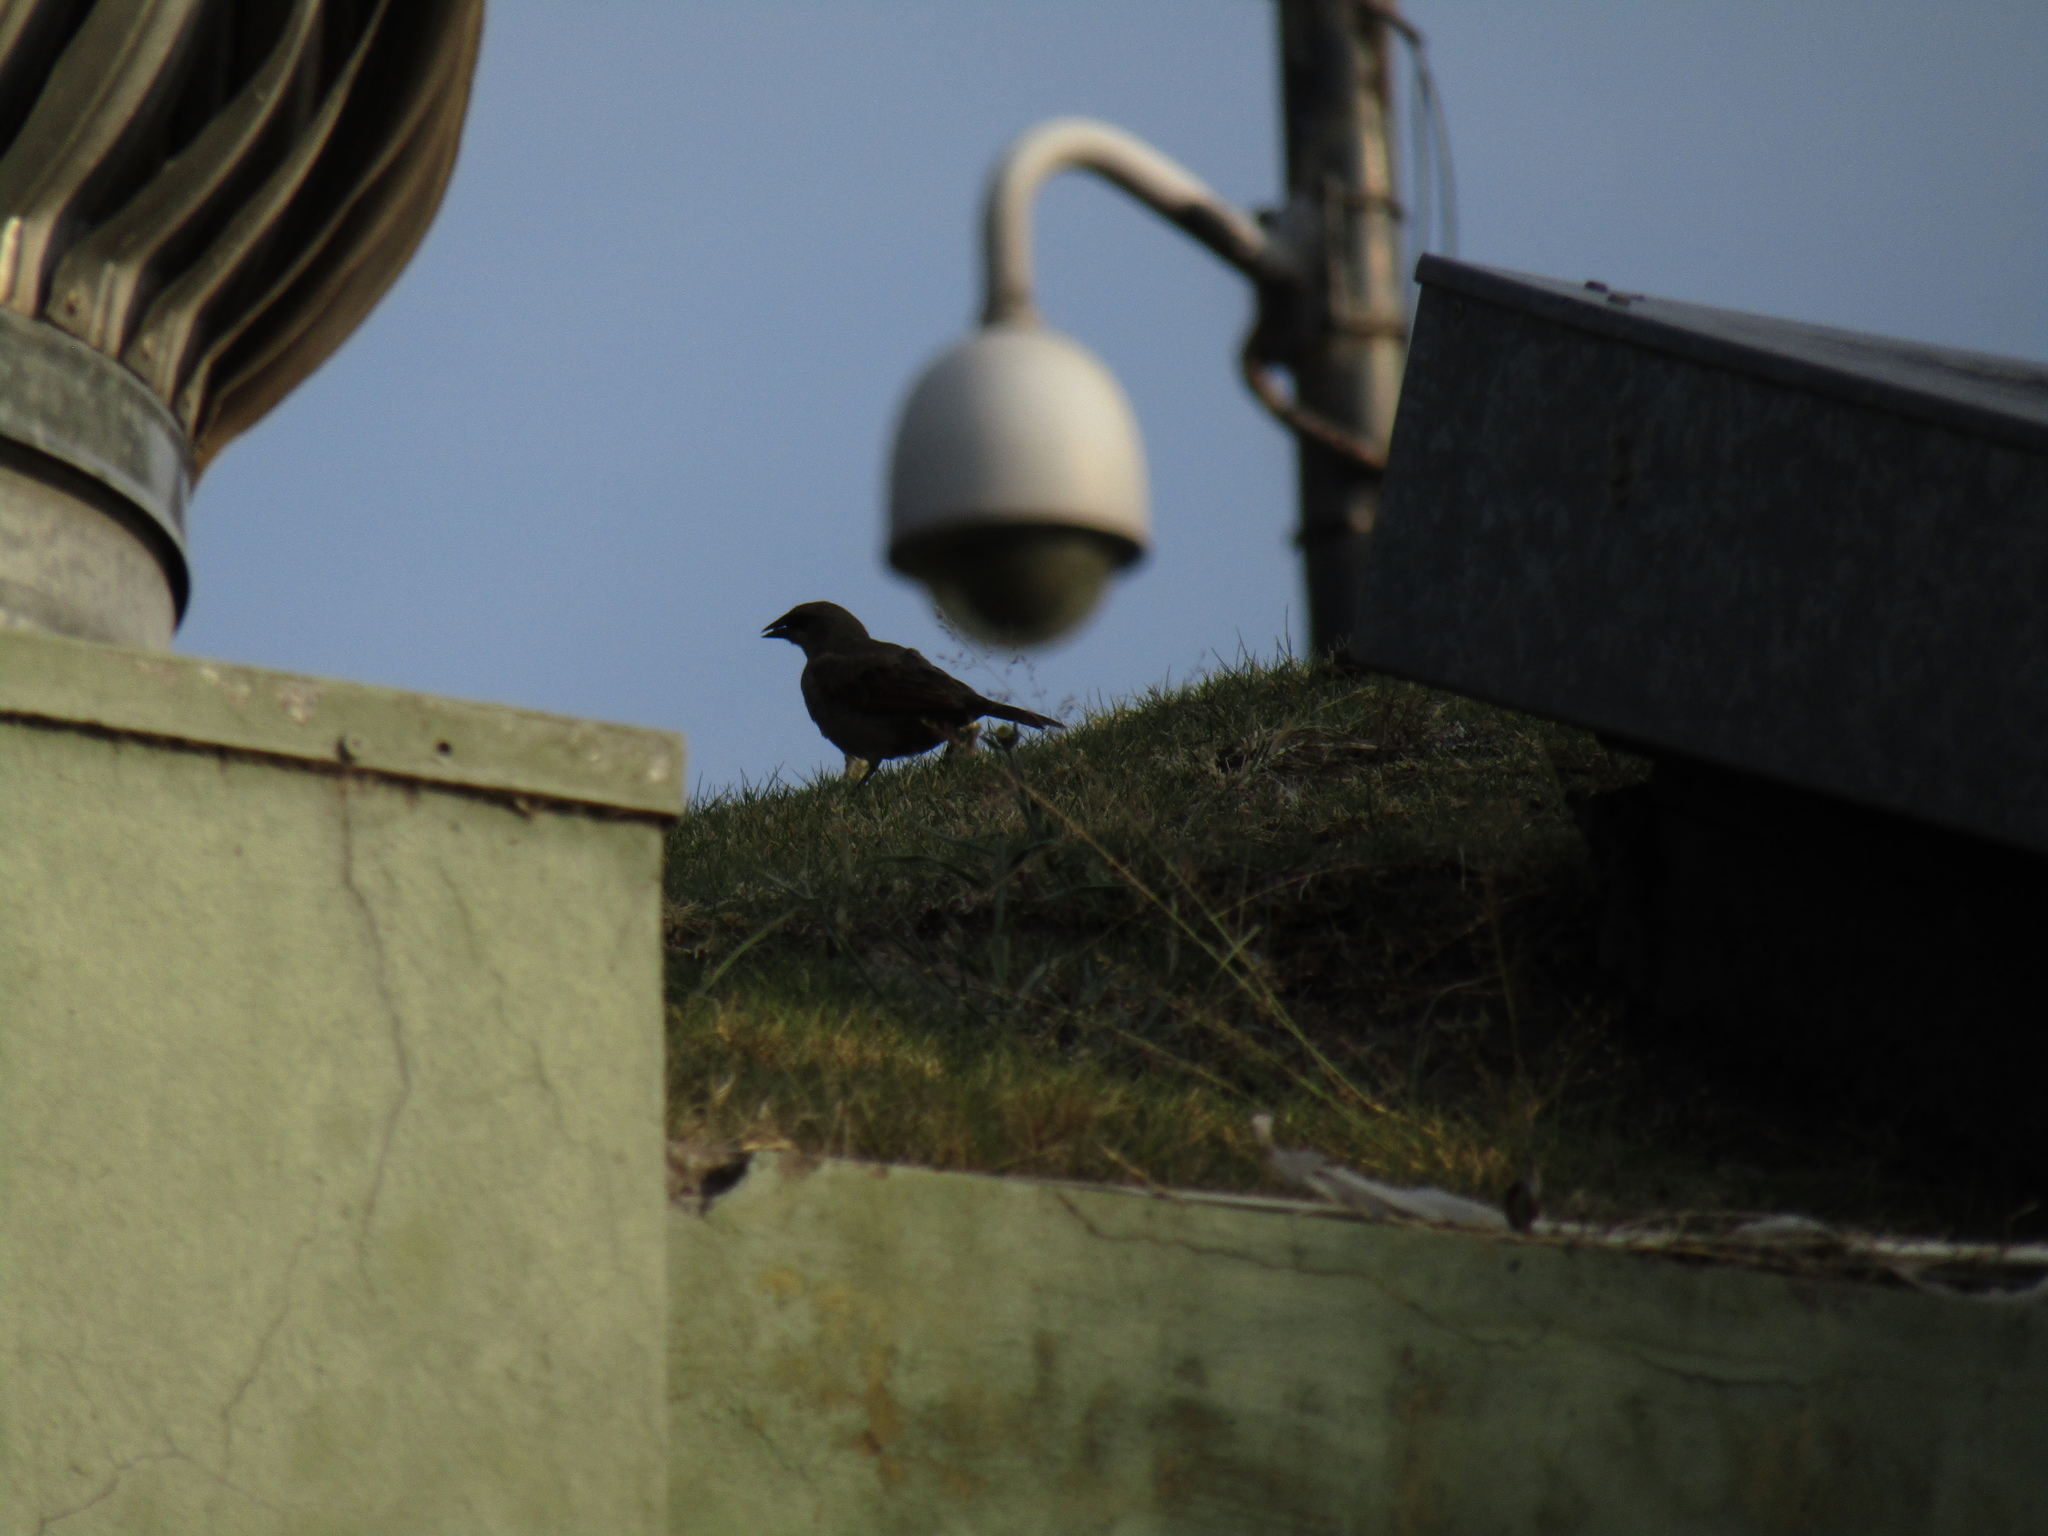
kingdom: Animalia
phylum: Chordata
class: Aves
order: Passeriformes
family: Icteridae
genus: Agelaioides
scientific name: Agelaioides badius
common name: Baywing
